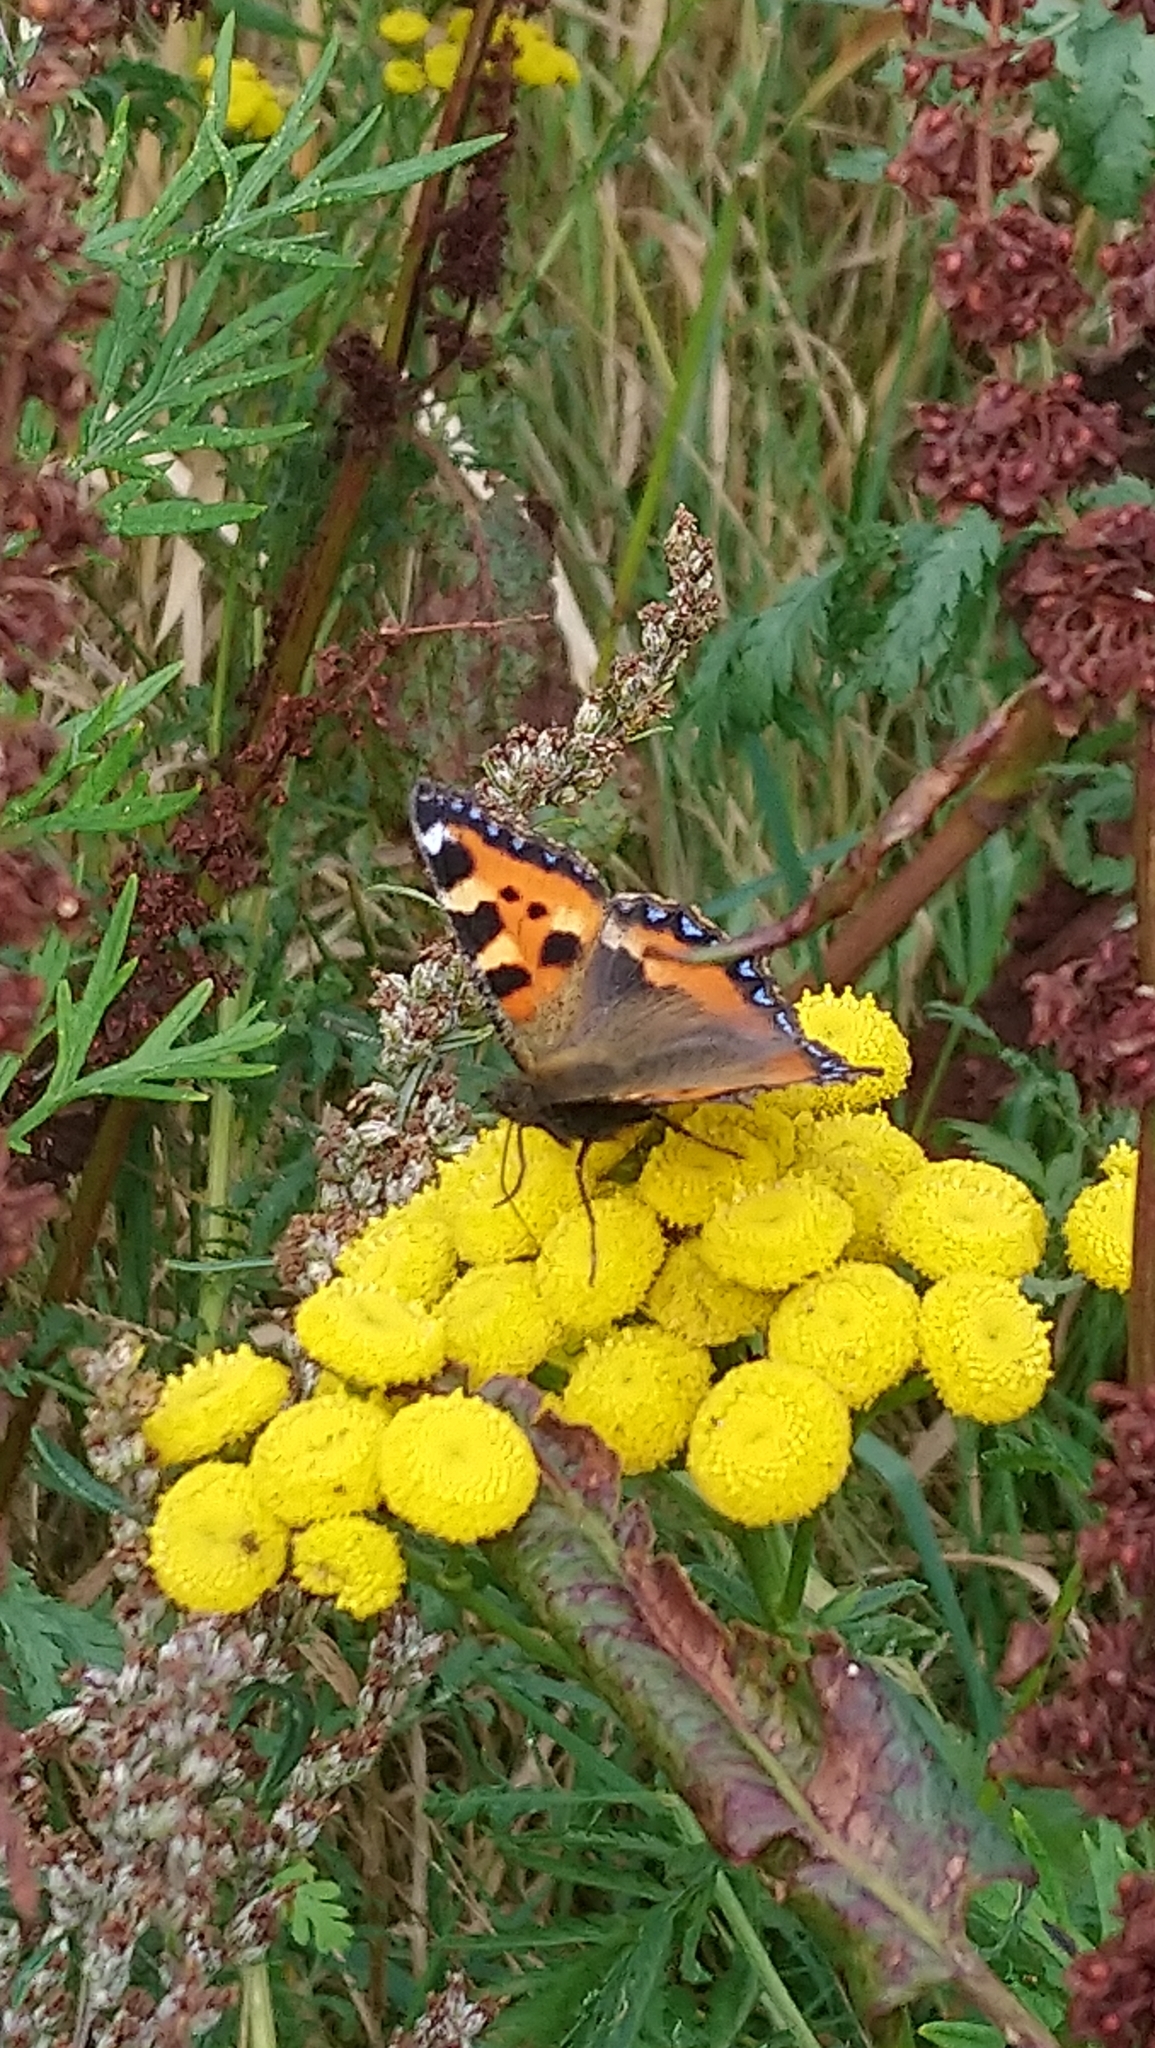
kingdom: Animalia
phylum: Arthropoda
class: Insecta
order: Lepidoptera
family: Nymphalidae
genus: Aglais
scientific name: Aglais urticae
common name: Small tortoiseshell
